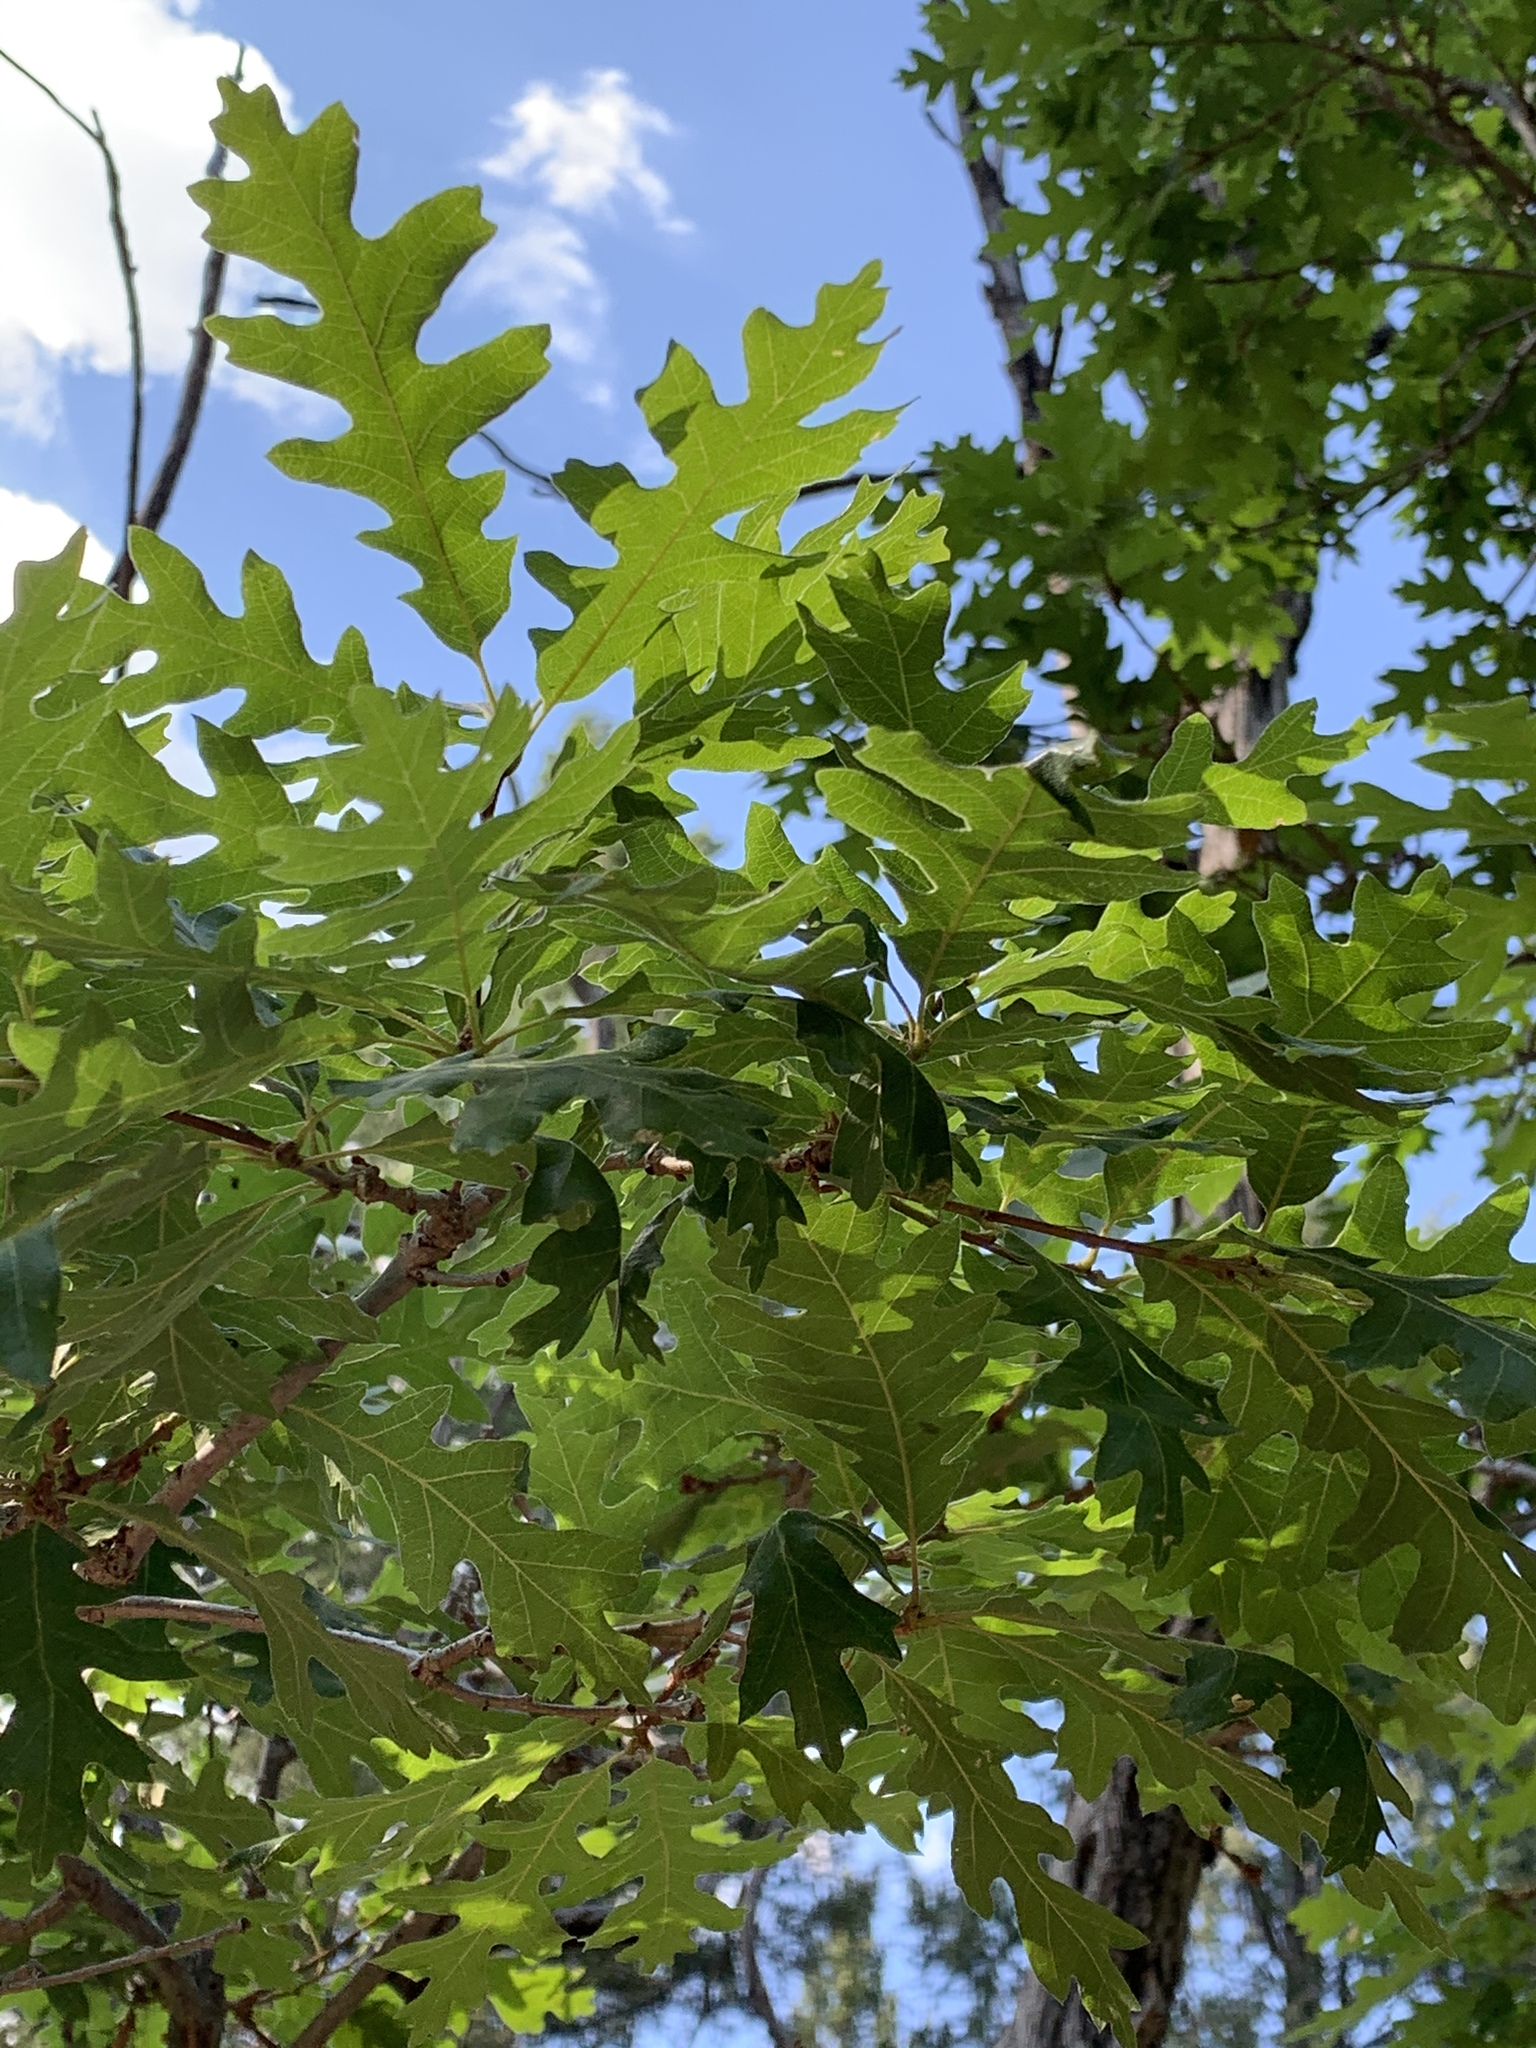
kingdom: Plantae
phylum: Tracheophyta
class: Magnoliopsida
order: Fagales
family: Fagaceae
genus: Quercus
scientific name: Quercus gambelii
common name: Gambel oak
